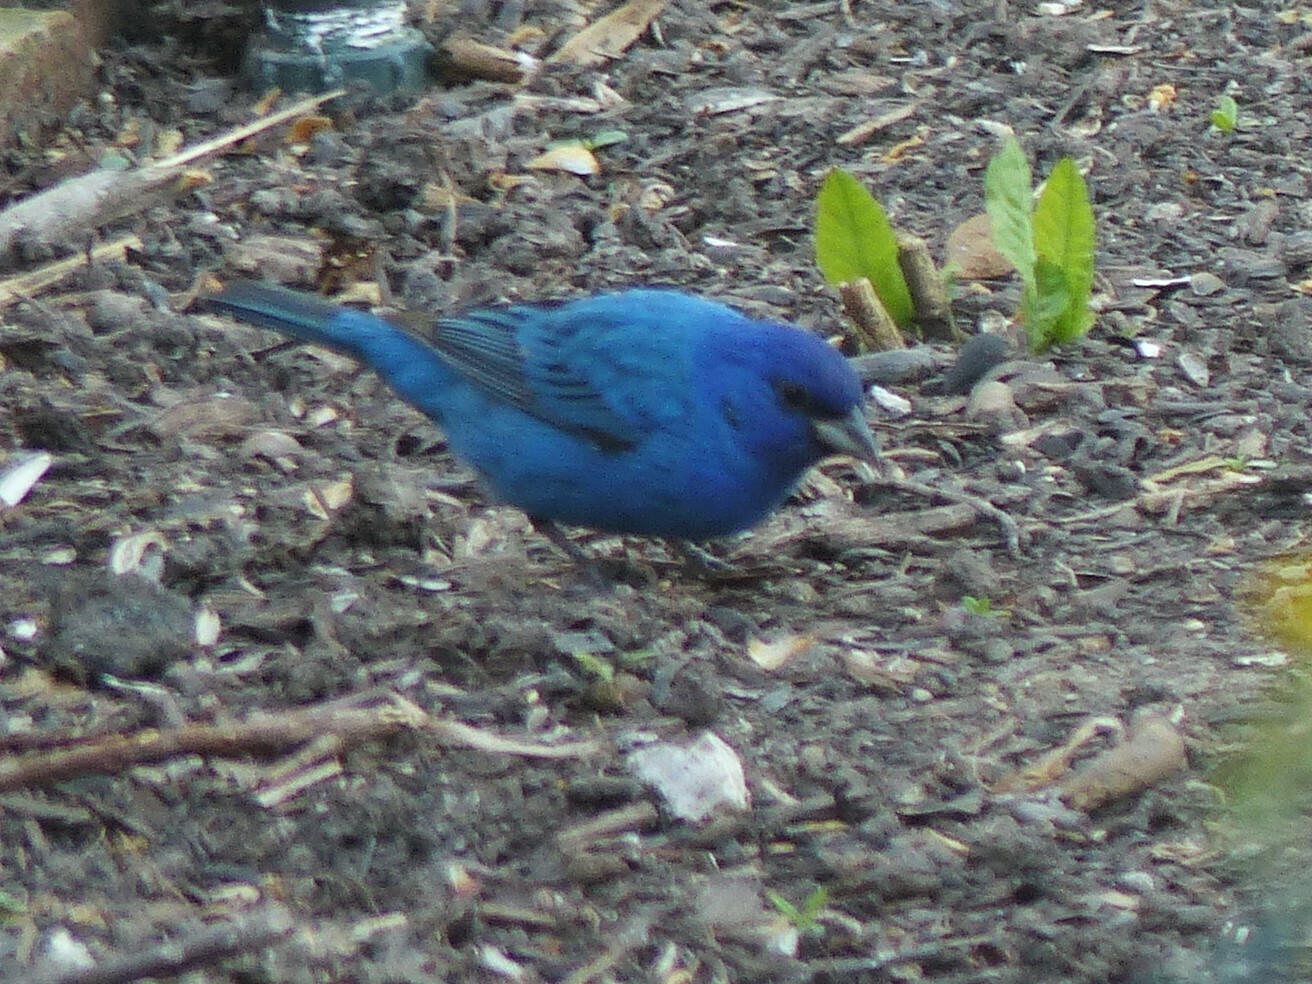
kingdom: Animalia
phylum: Chordata
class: Aves
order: Passeriformes
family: Cardinalidae
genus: Passerina
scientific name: Passerina cyanea
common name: Indigo bunting
